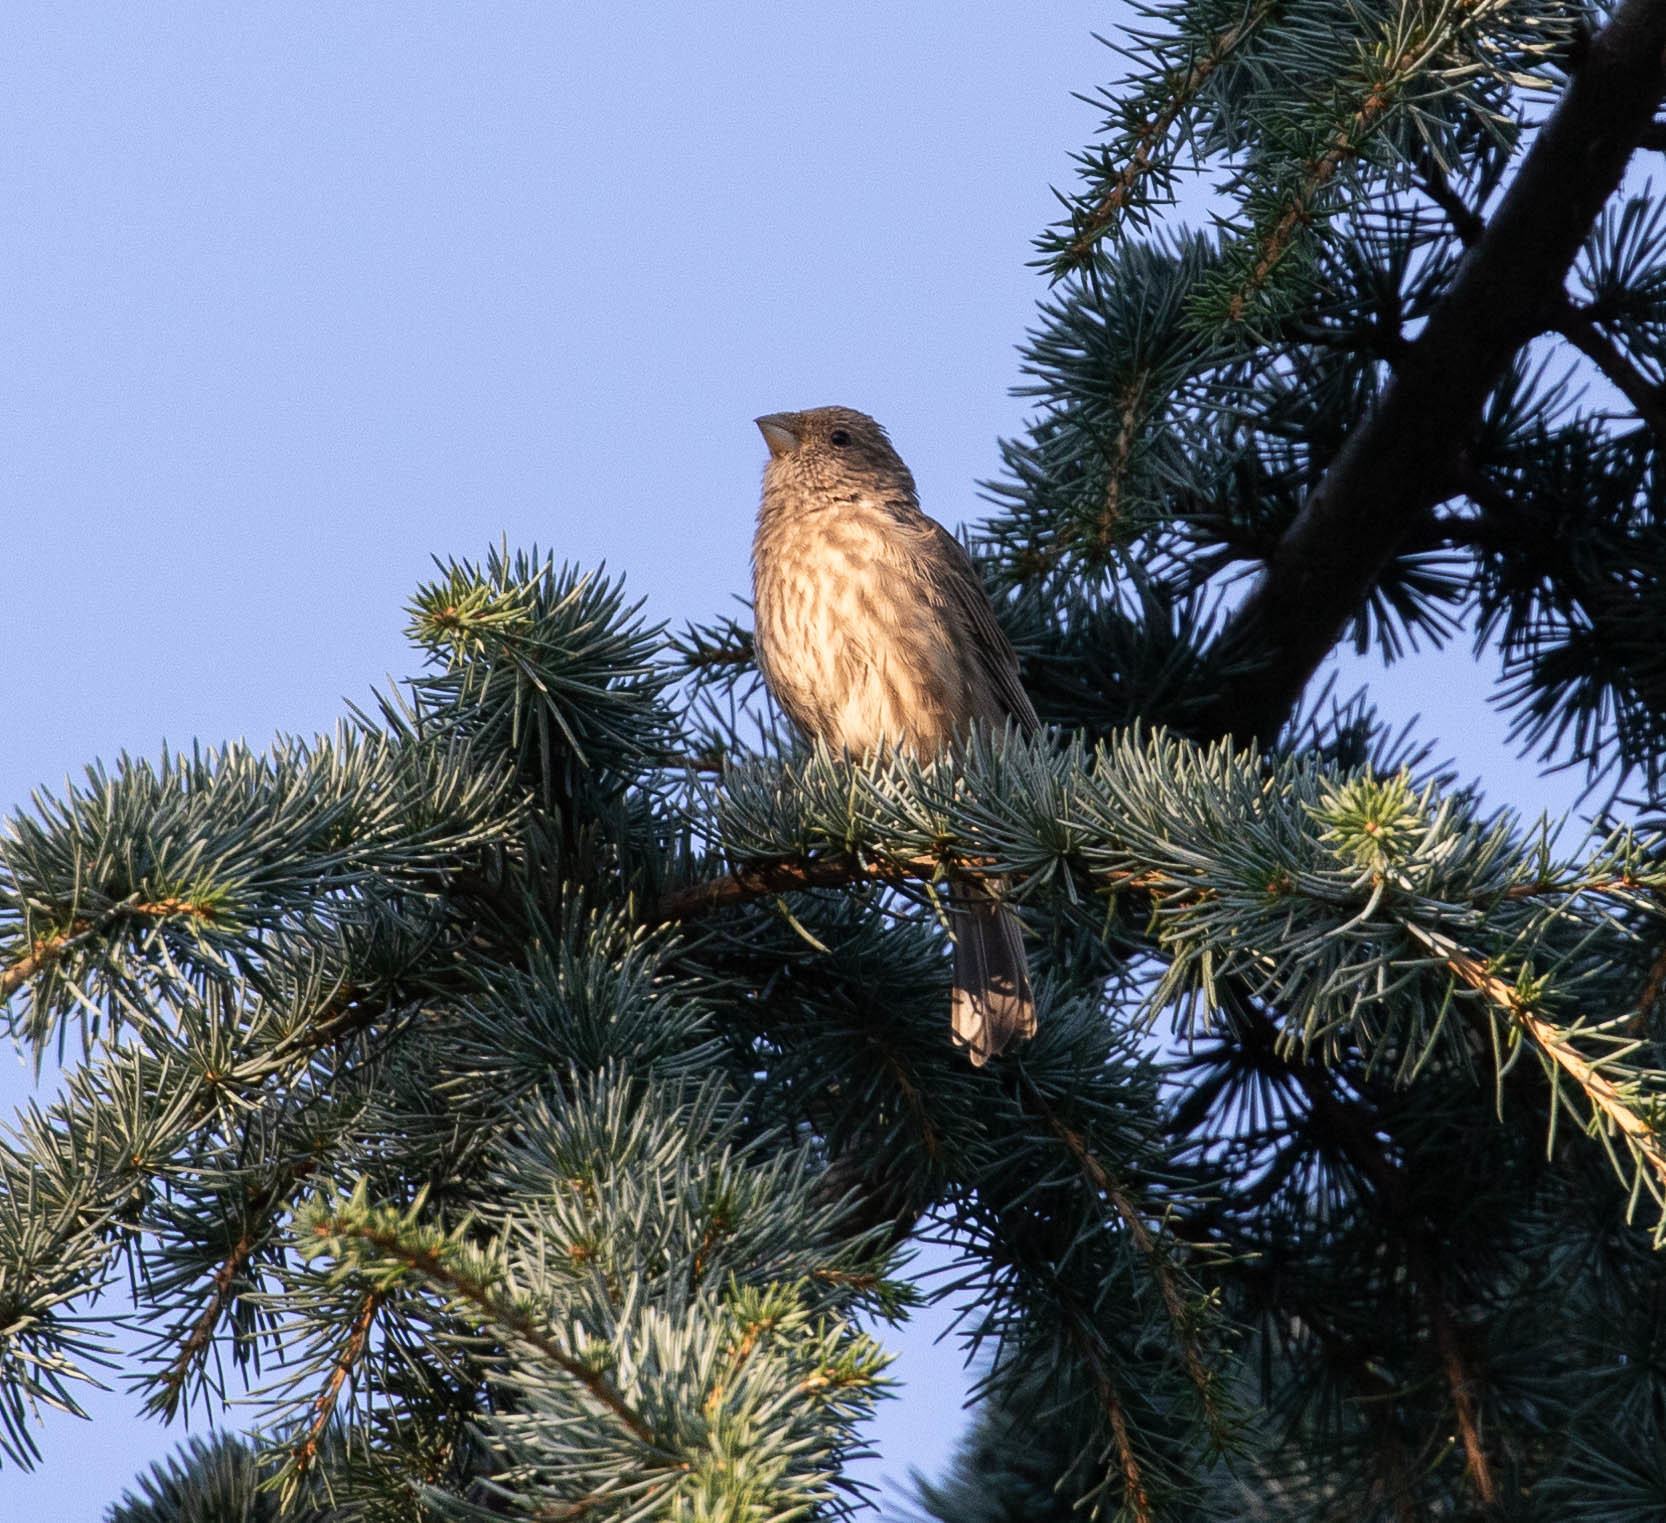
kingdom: Animalia
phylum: Chordata
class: Aves
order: Passeriformes
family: Fringillidae
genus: Haemorhous
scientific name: Haemorhous mexicanus
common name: House finch
